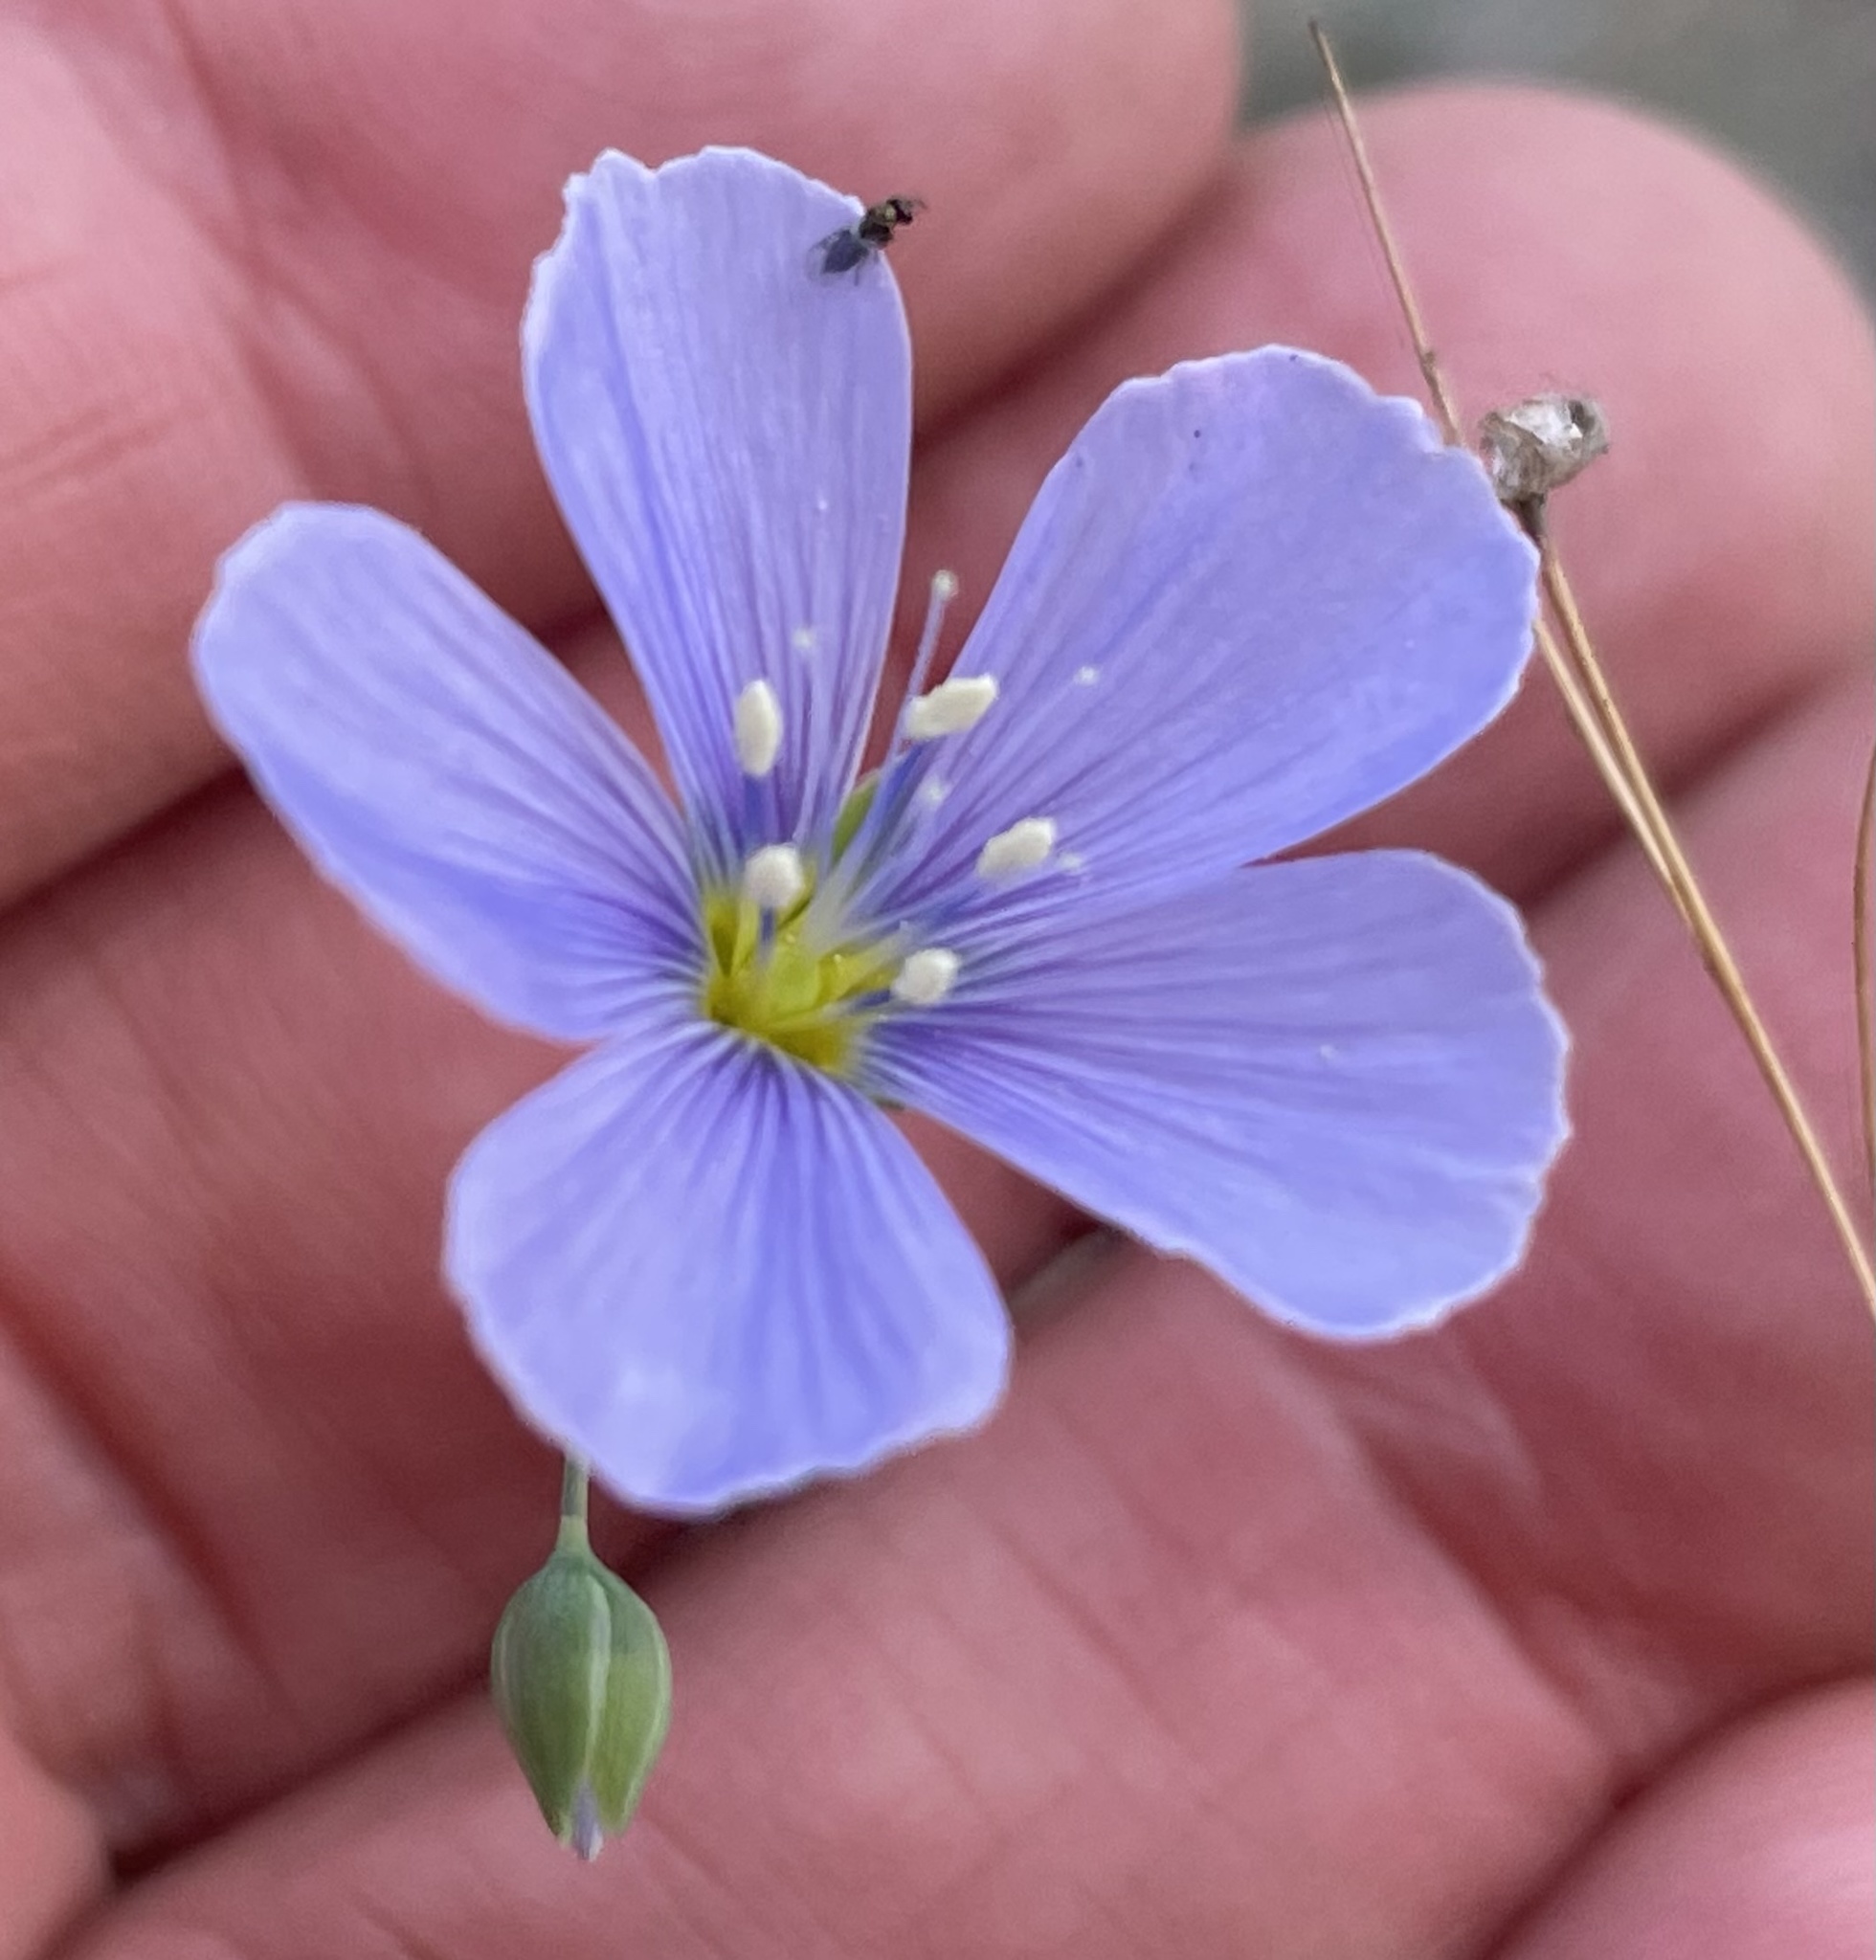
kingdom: Plantae
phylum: Tracheophyta
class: Magnoliopsida
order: Malpighiales
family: Linaceae
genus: Linum
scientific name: Linum lewisii
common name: Prairie flax
